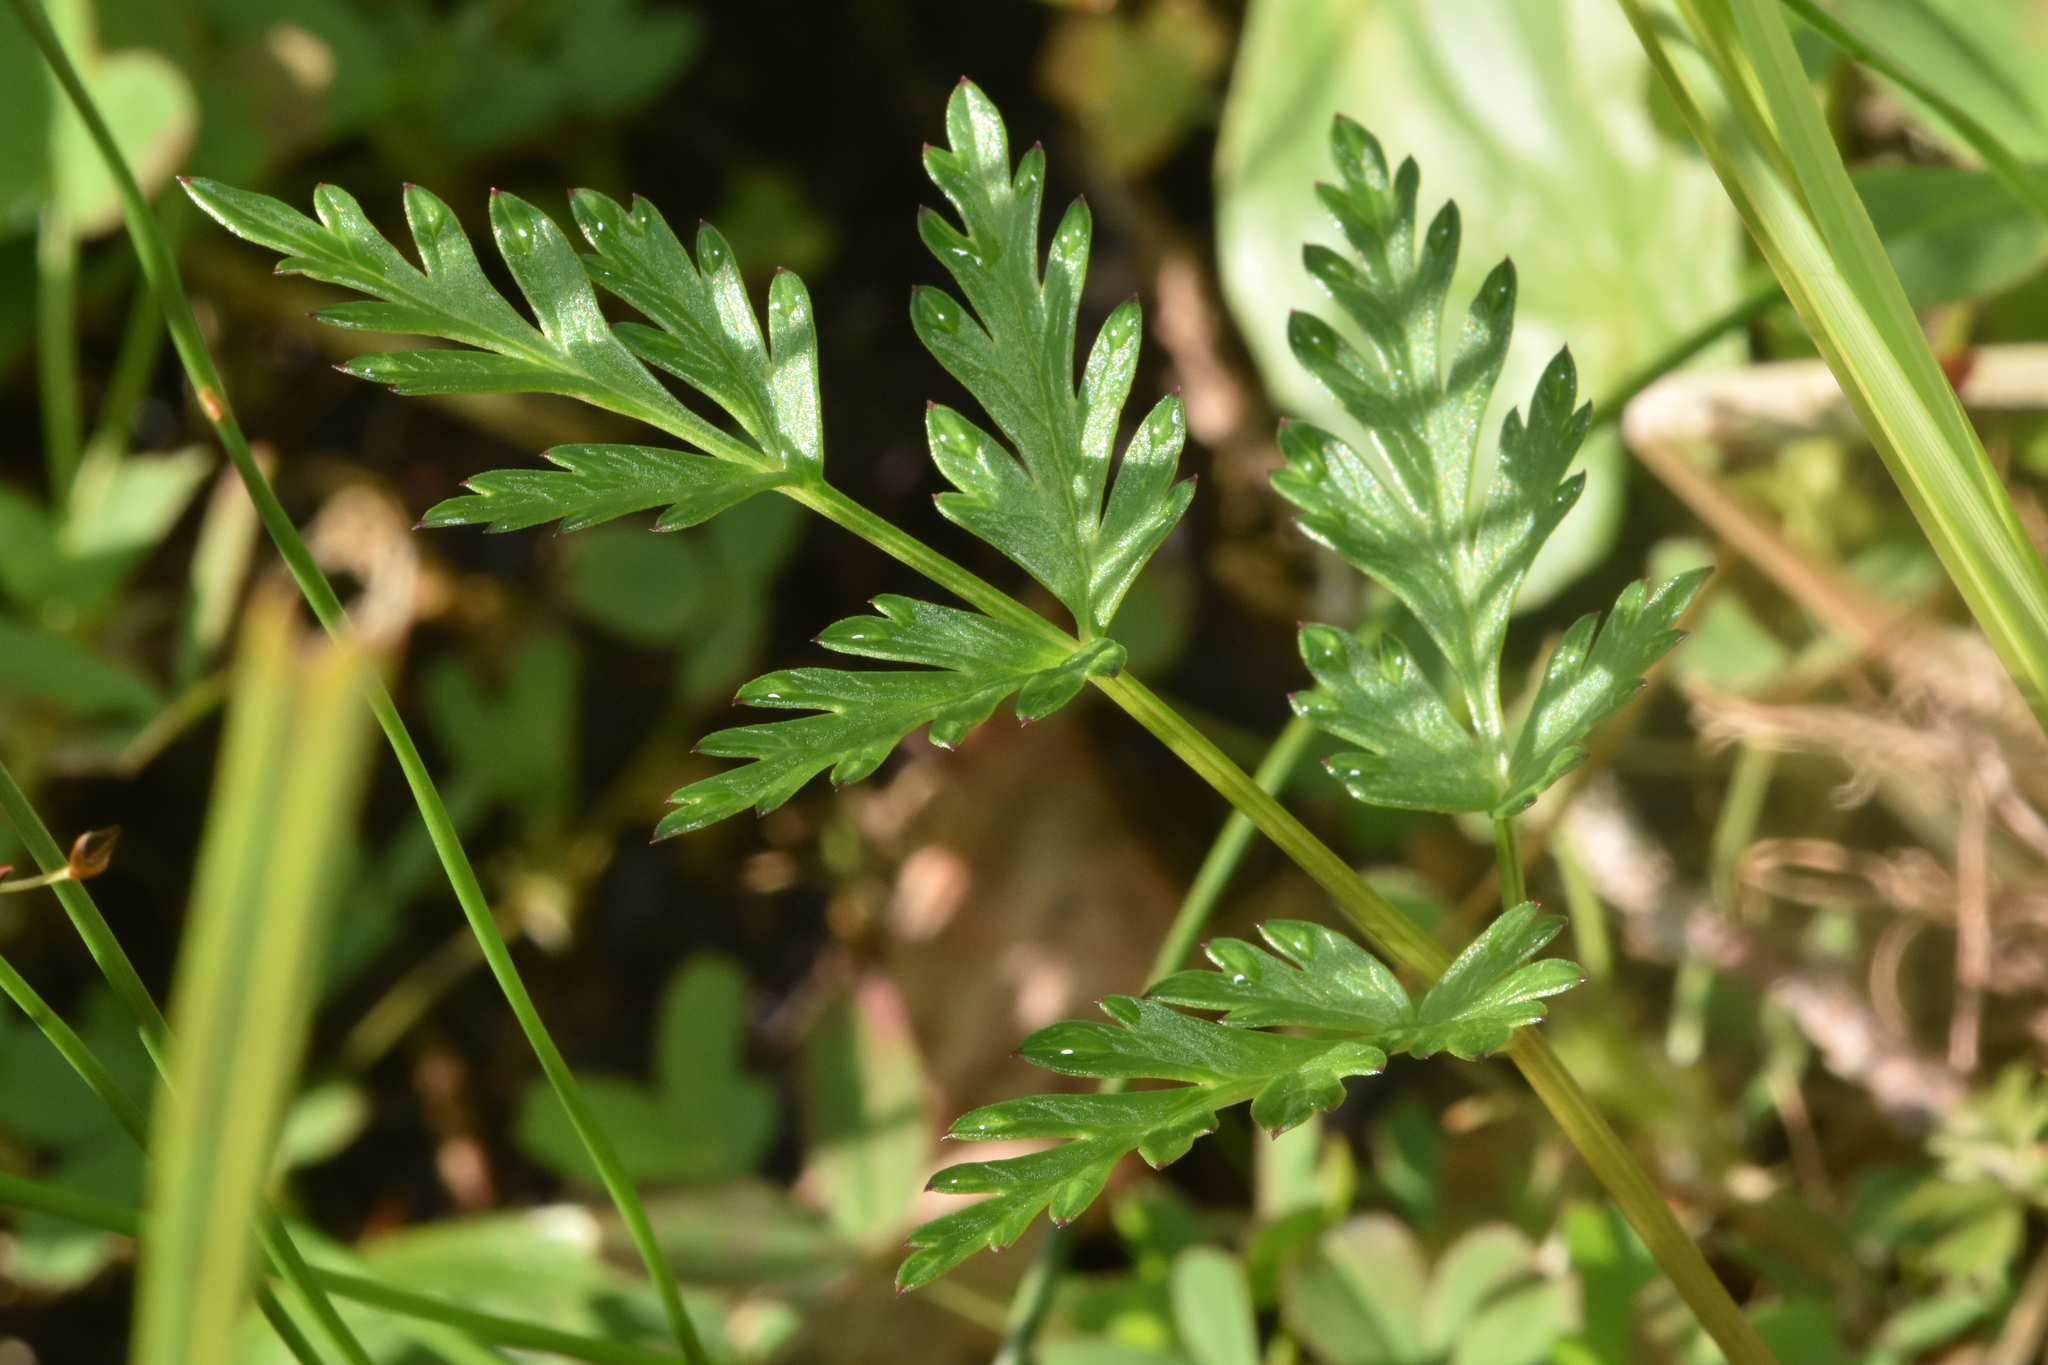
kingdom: Plantae
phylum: Tracheophyta
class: Magnoliopsida
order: Apiales
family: Apiaceae
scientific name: Apiaceae
